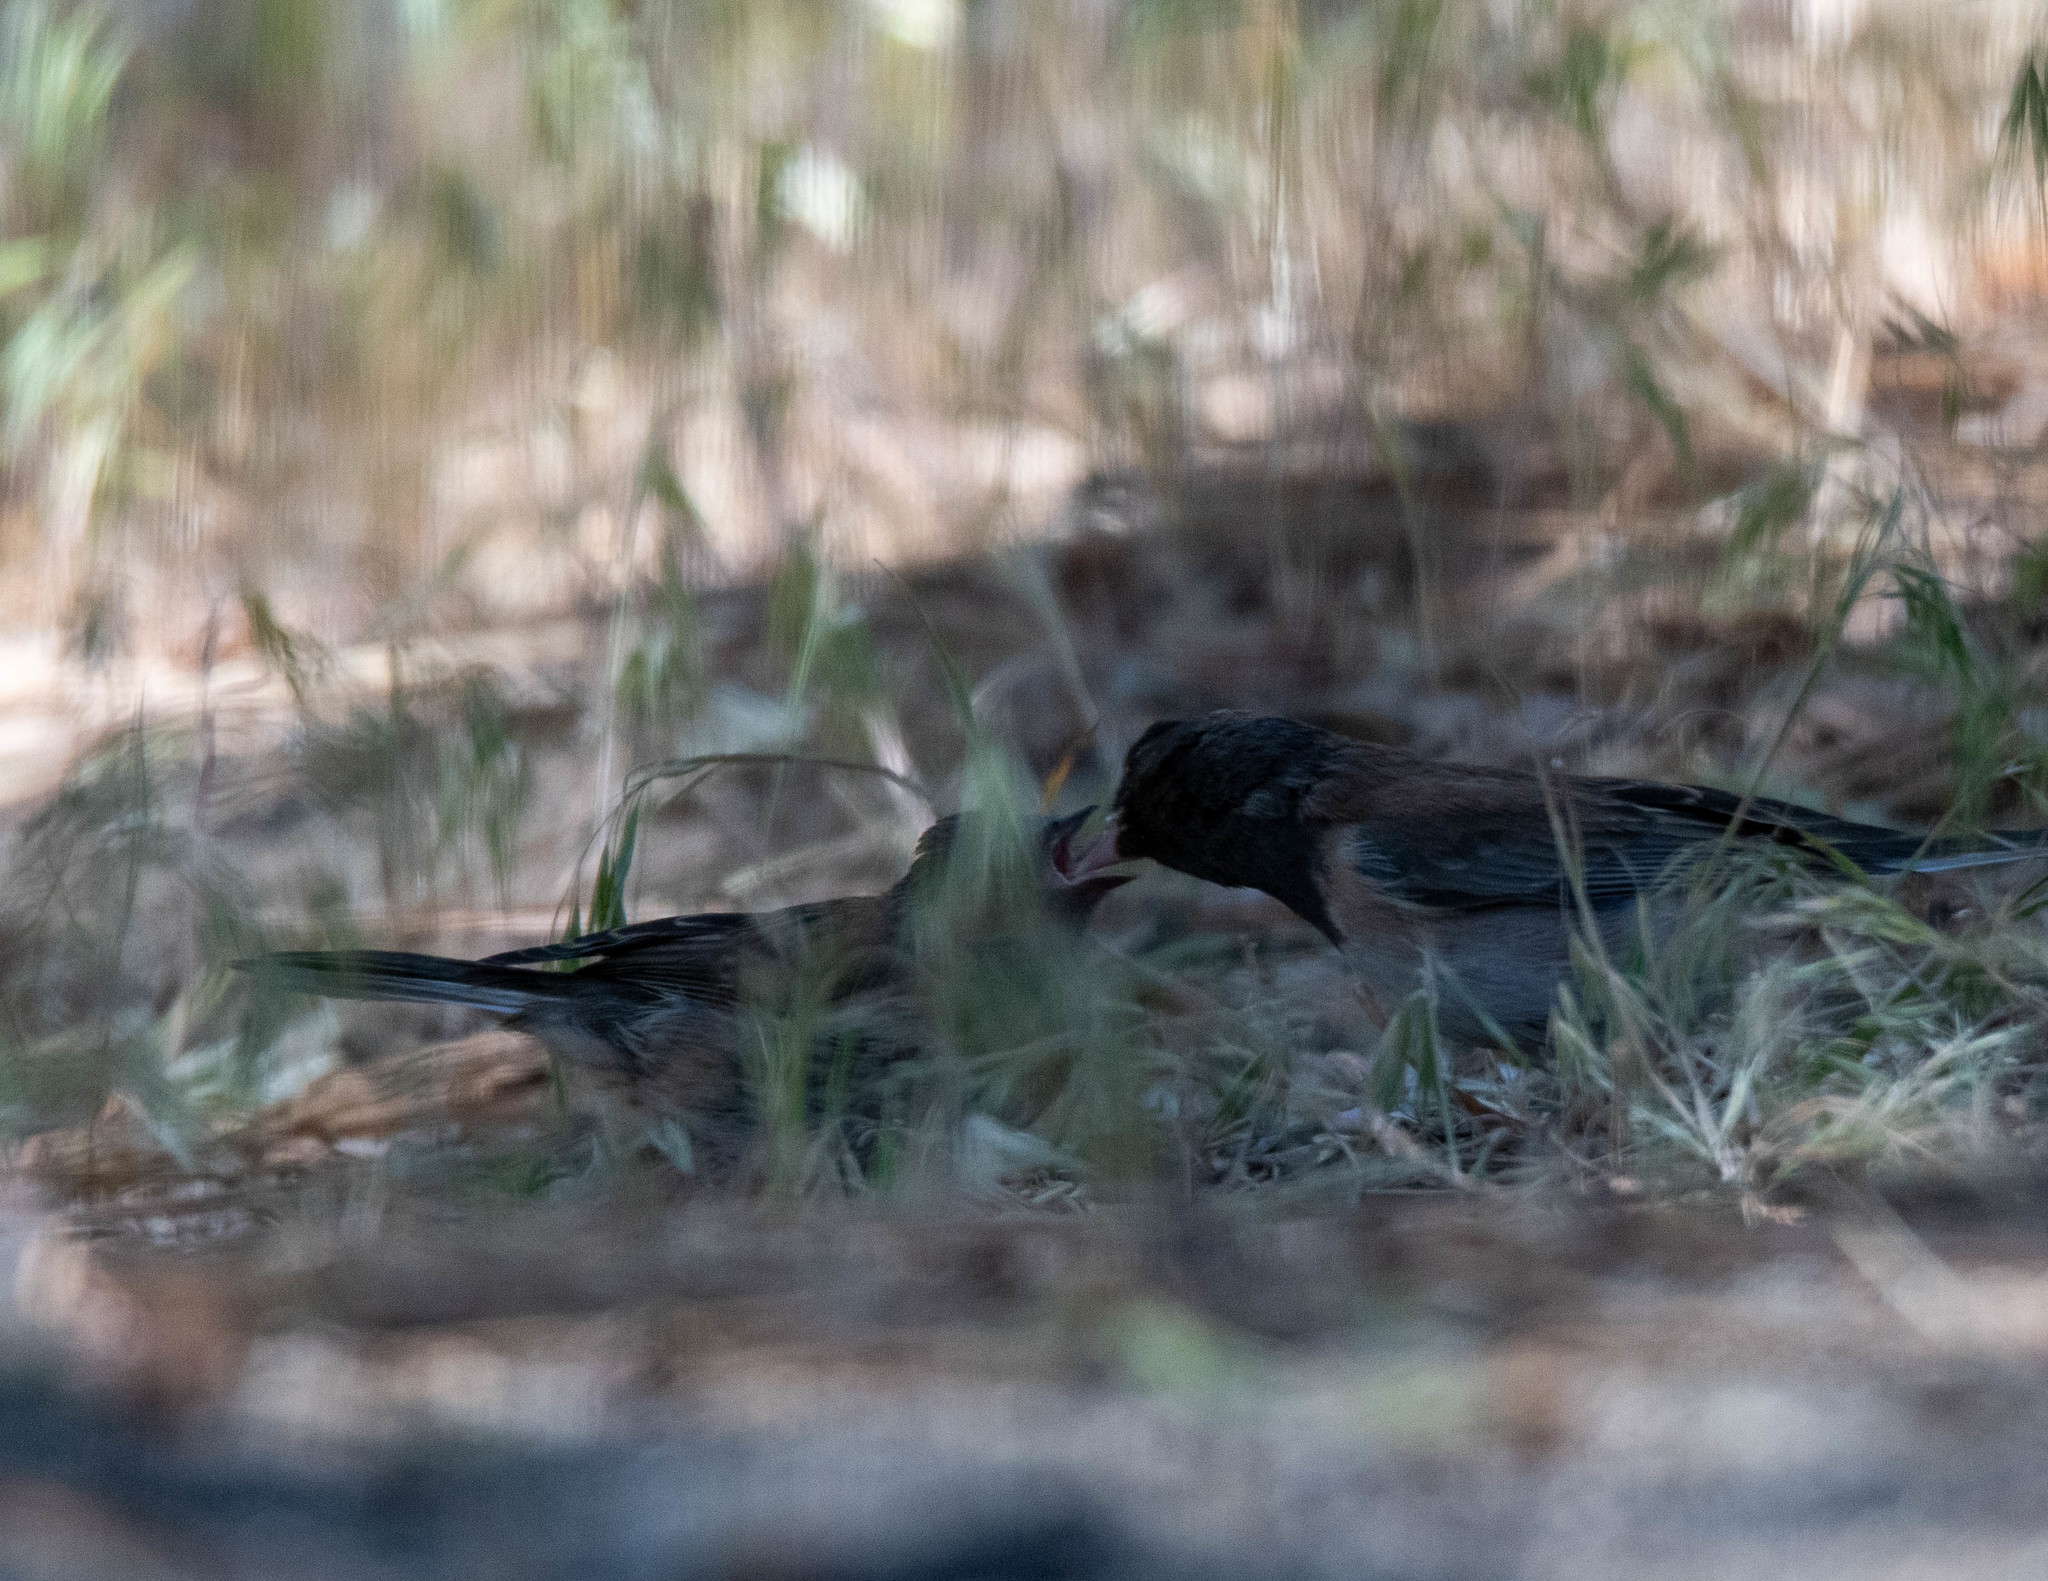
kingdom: Animalia
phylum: Chordata
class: Aves
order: Passeriformes
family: Passerellidae
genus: Junco
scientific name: Junco hyemalis
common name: Dark-eyed junco
